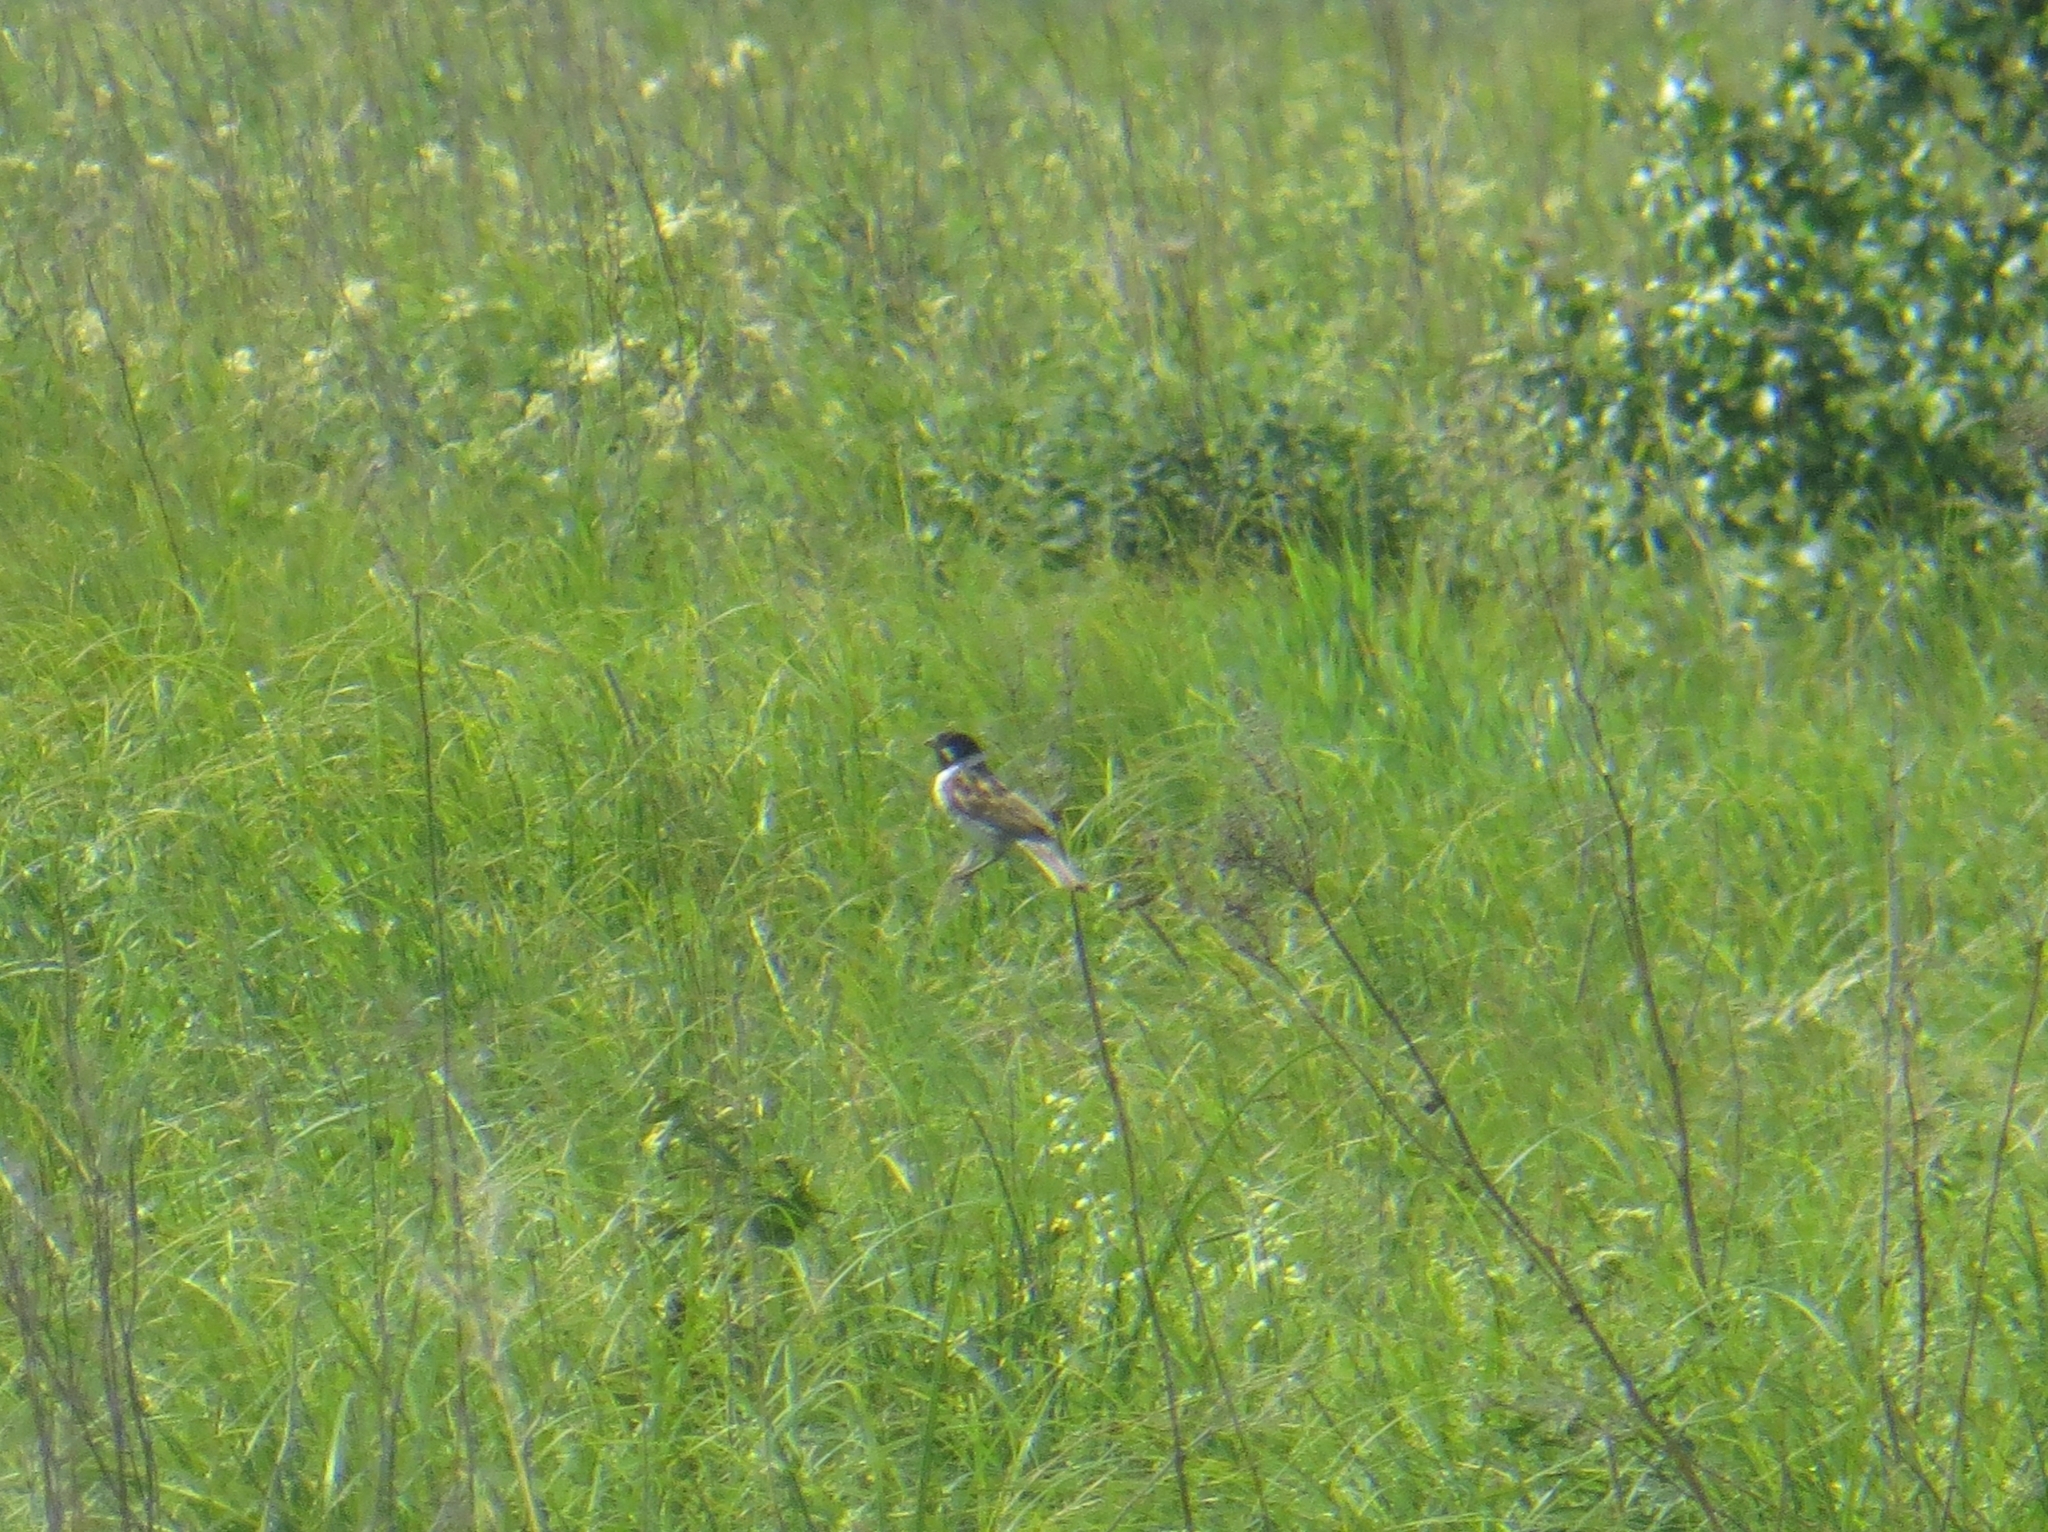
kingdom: Animalia
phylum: Chordata
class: Aves
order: Passeriformes
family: Emberizidae
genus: Emberiza
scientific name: Emberiza schoeniclus
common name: Reed bunting
